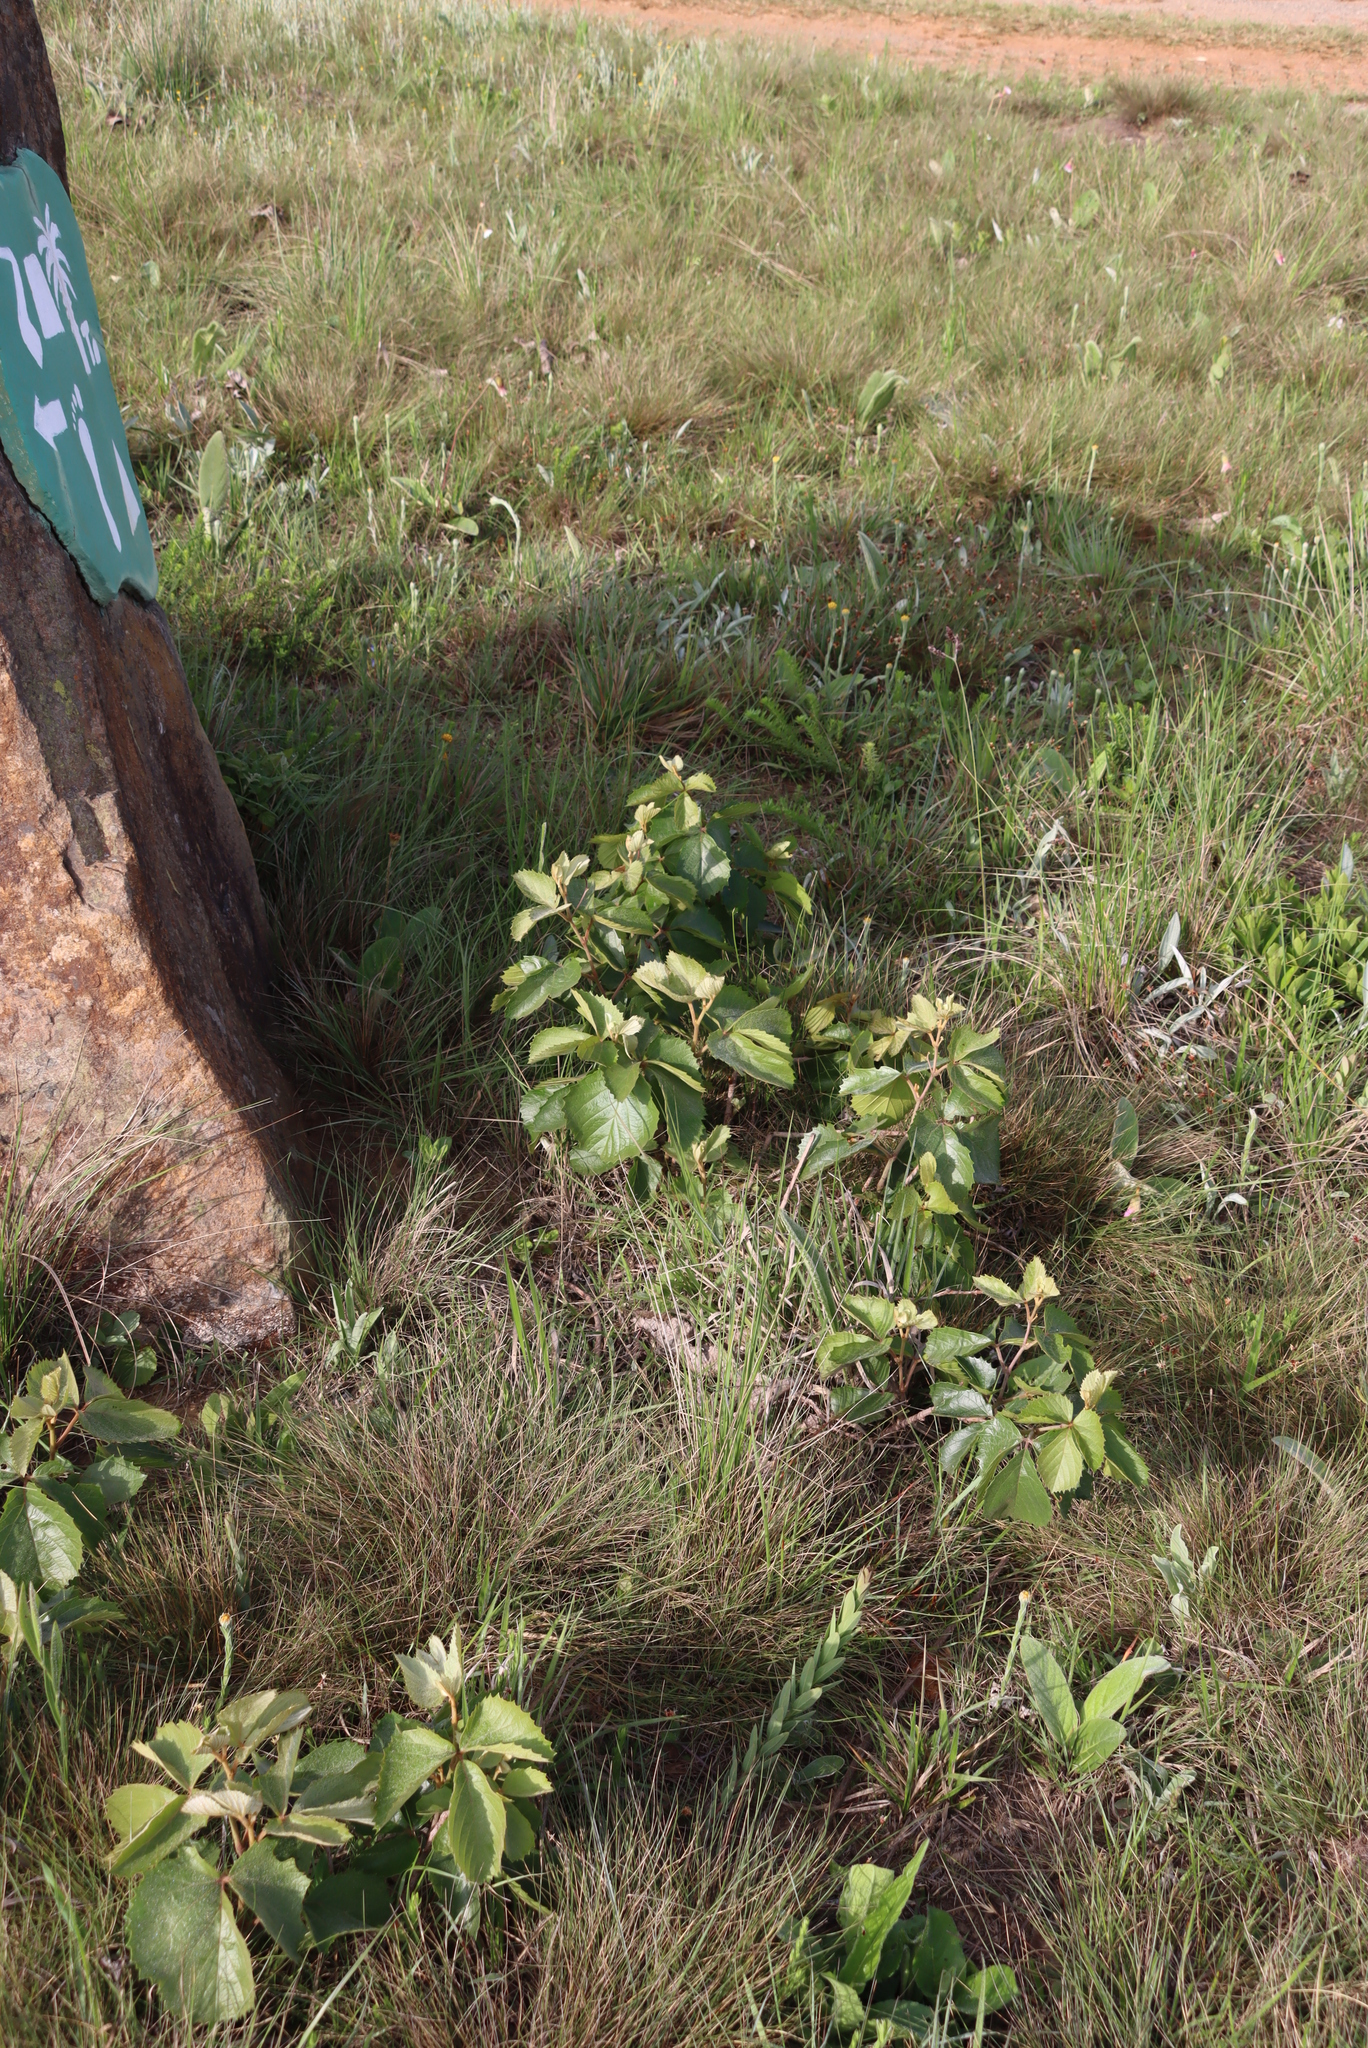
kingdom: Plantae
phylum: Tracheophyta
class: Magnoliopsida
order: Vitales
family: Vitaceae
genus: Rhoicissus
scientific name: Rhoicissus tridentata
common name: Common forest grape
